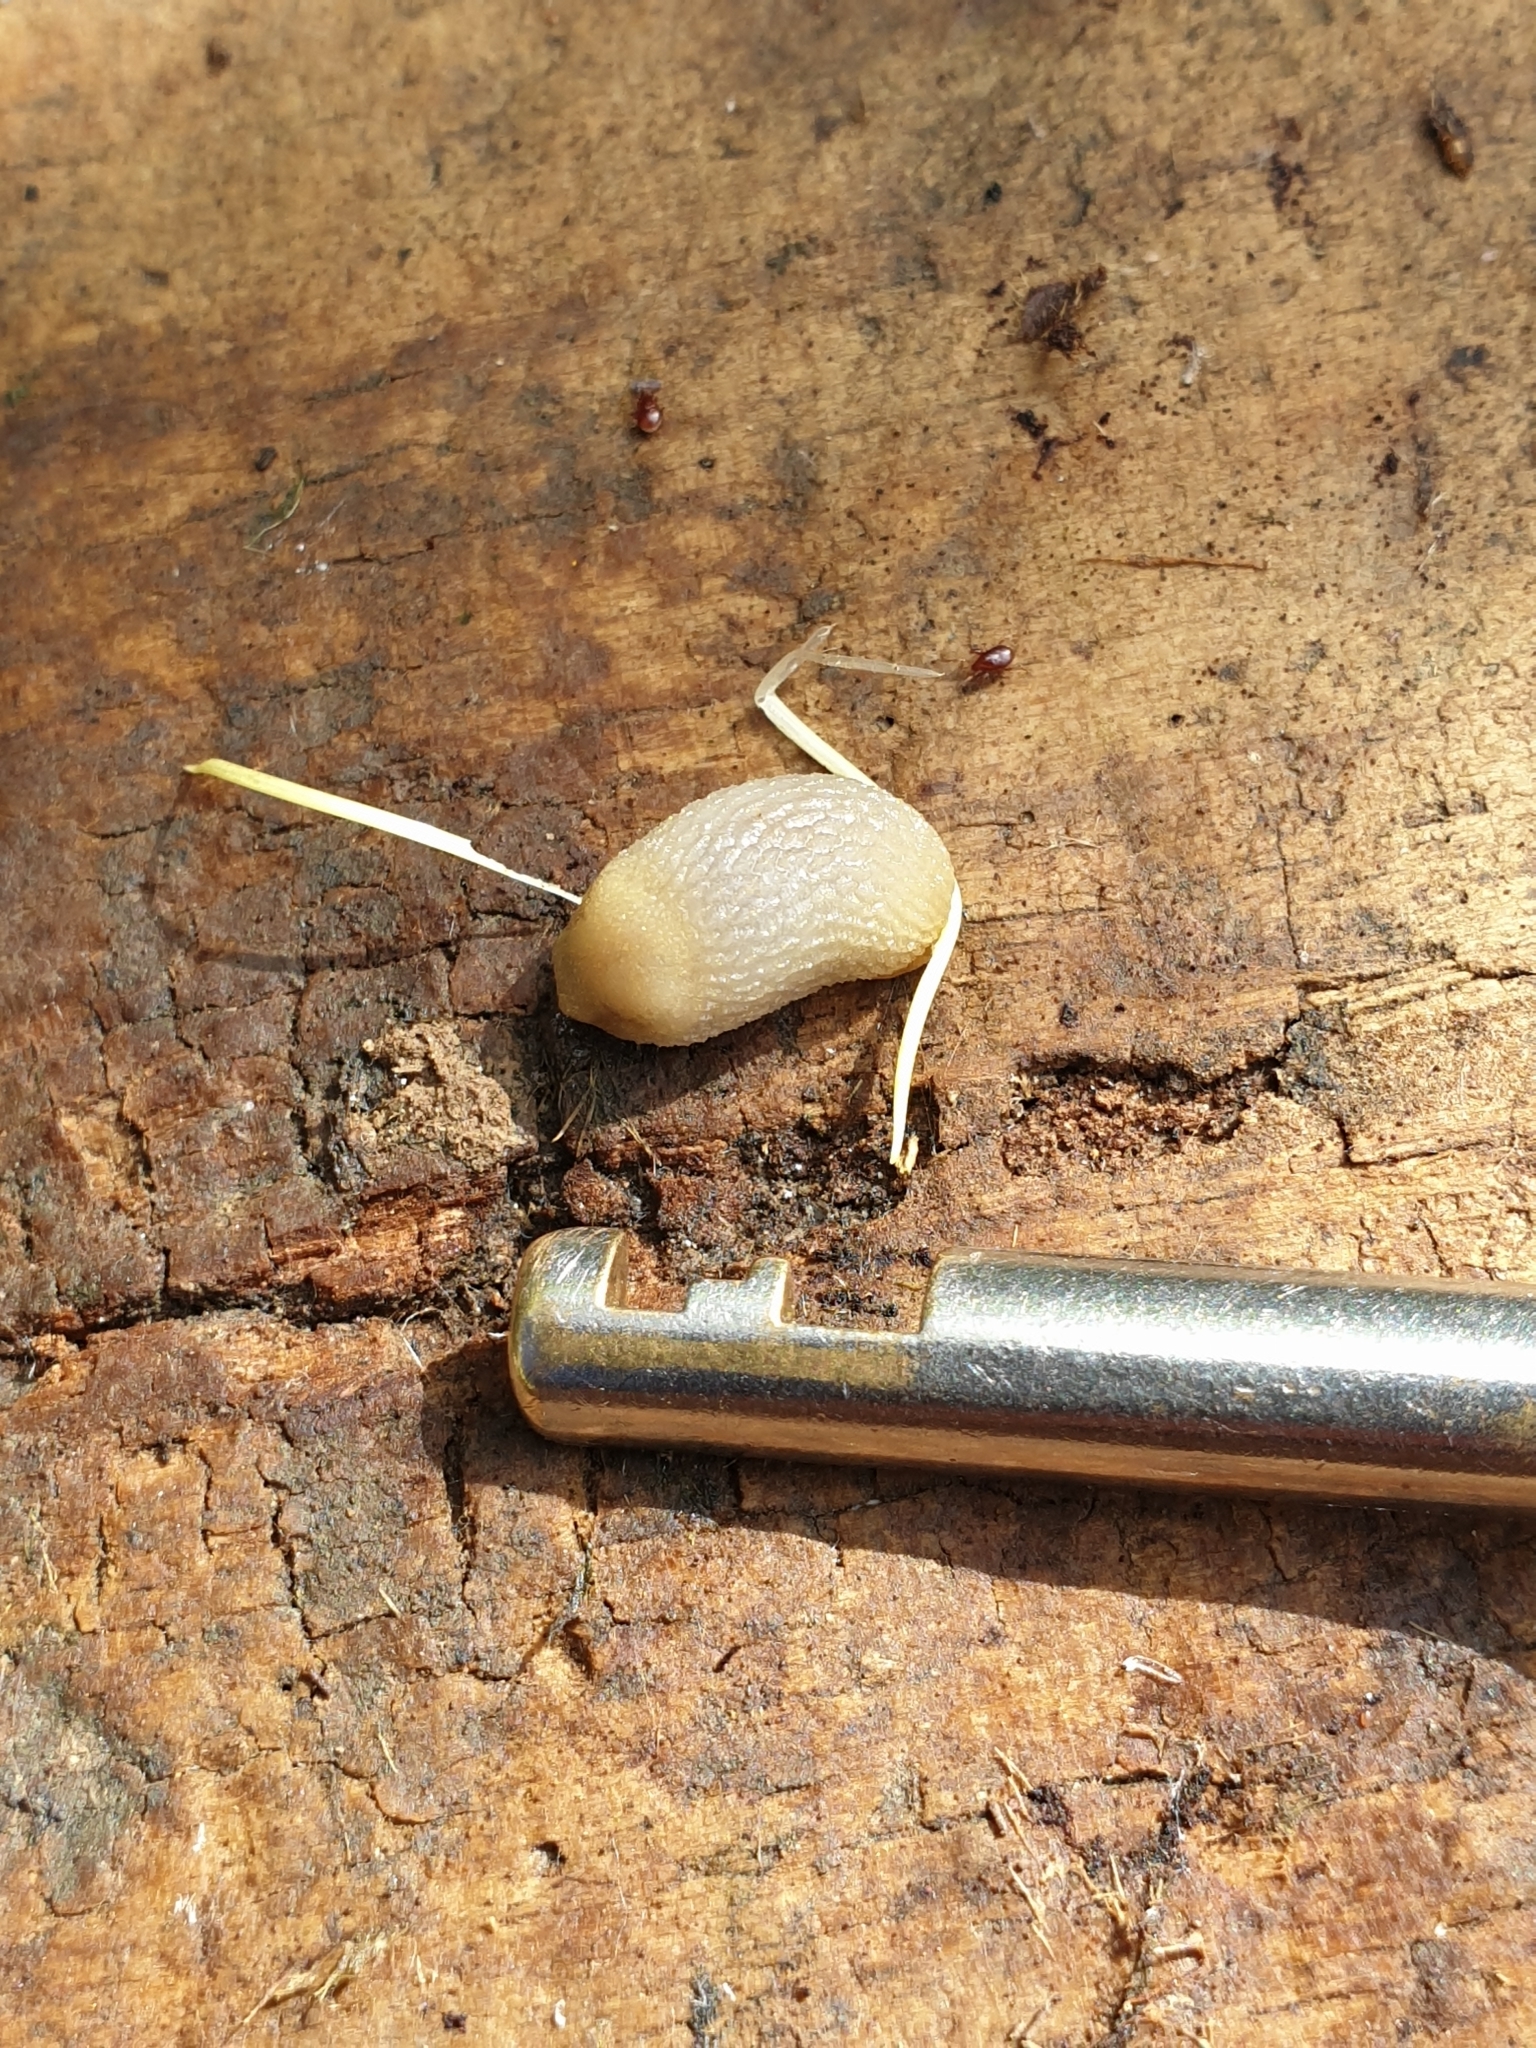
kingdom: Animalia
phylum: Mollusca
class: Gastropoda
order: Stylommatophora
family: Arionidae
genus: Arion
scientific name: Arion intermedius
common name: Hedgehog slug
